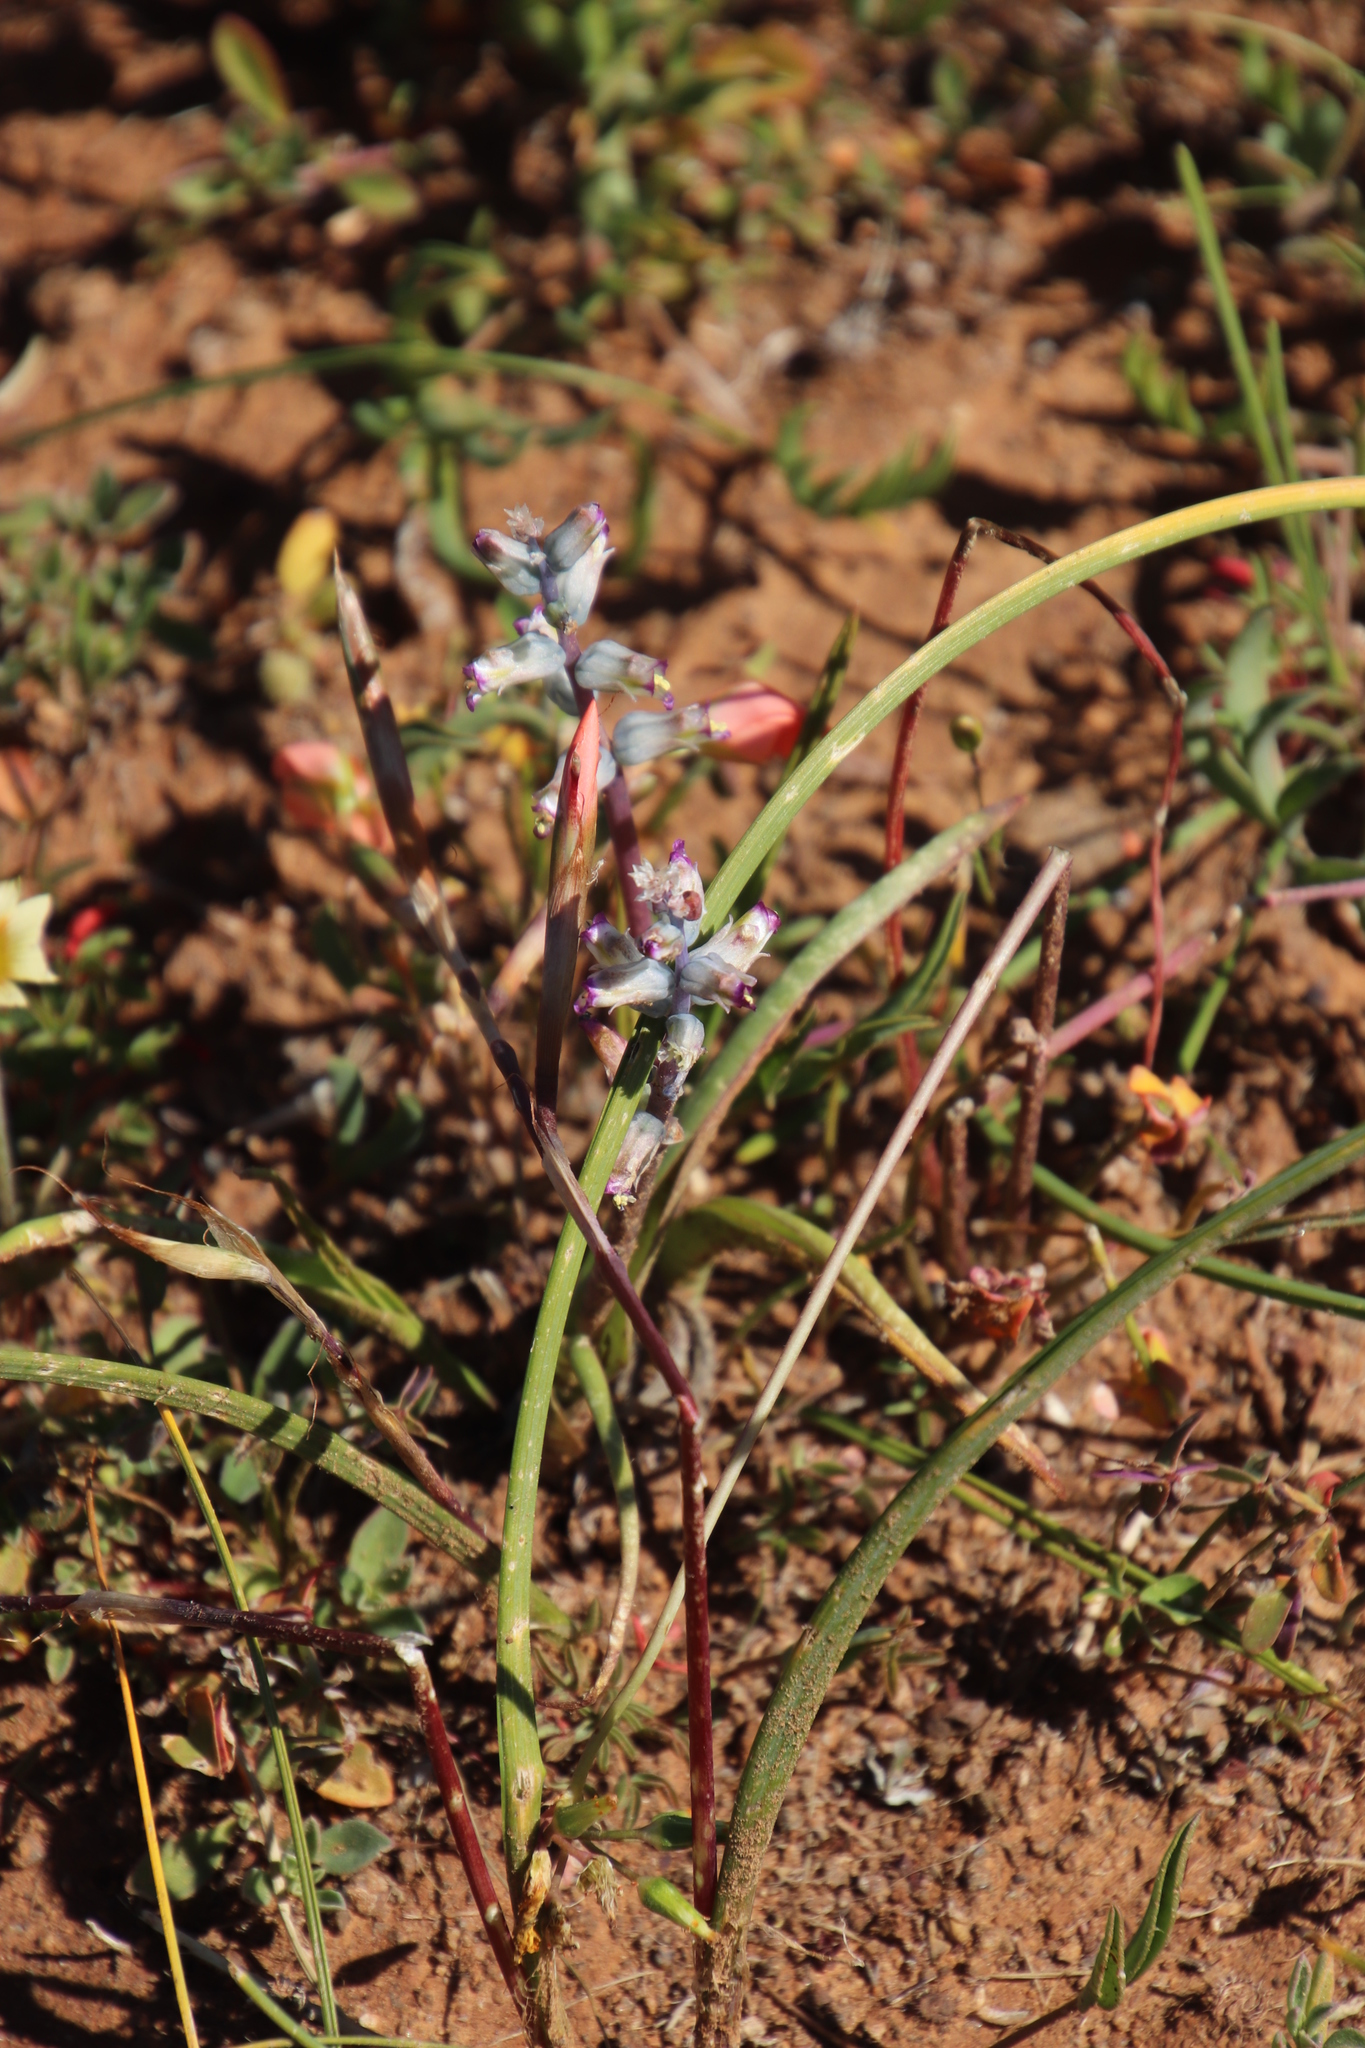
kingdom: Plantae
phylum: Tracheophyta
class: Liliopsida
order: Asparagales
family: Asparagaceae
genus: Lachenalia
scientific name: Lachenalia obscura
